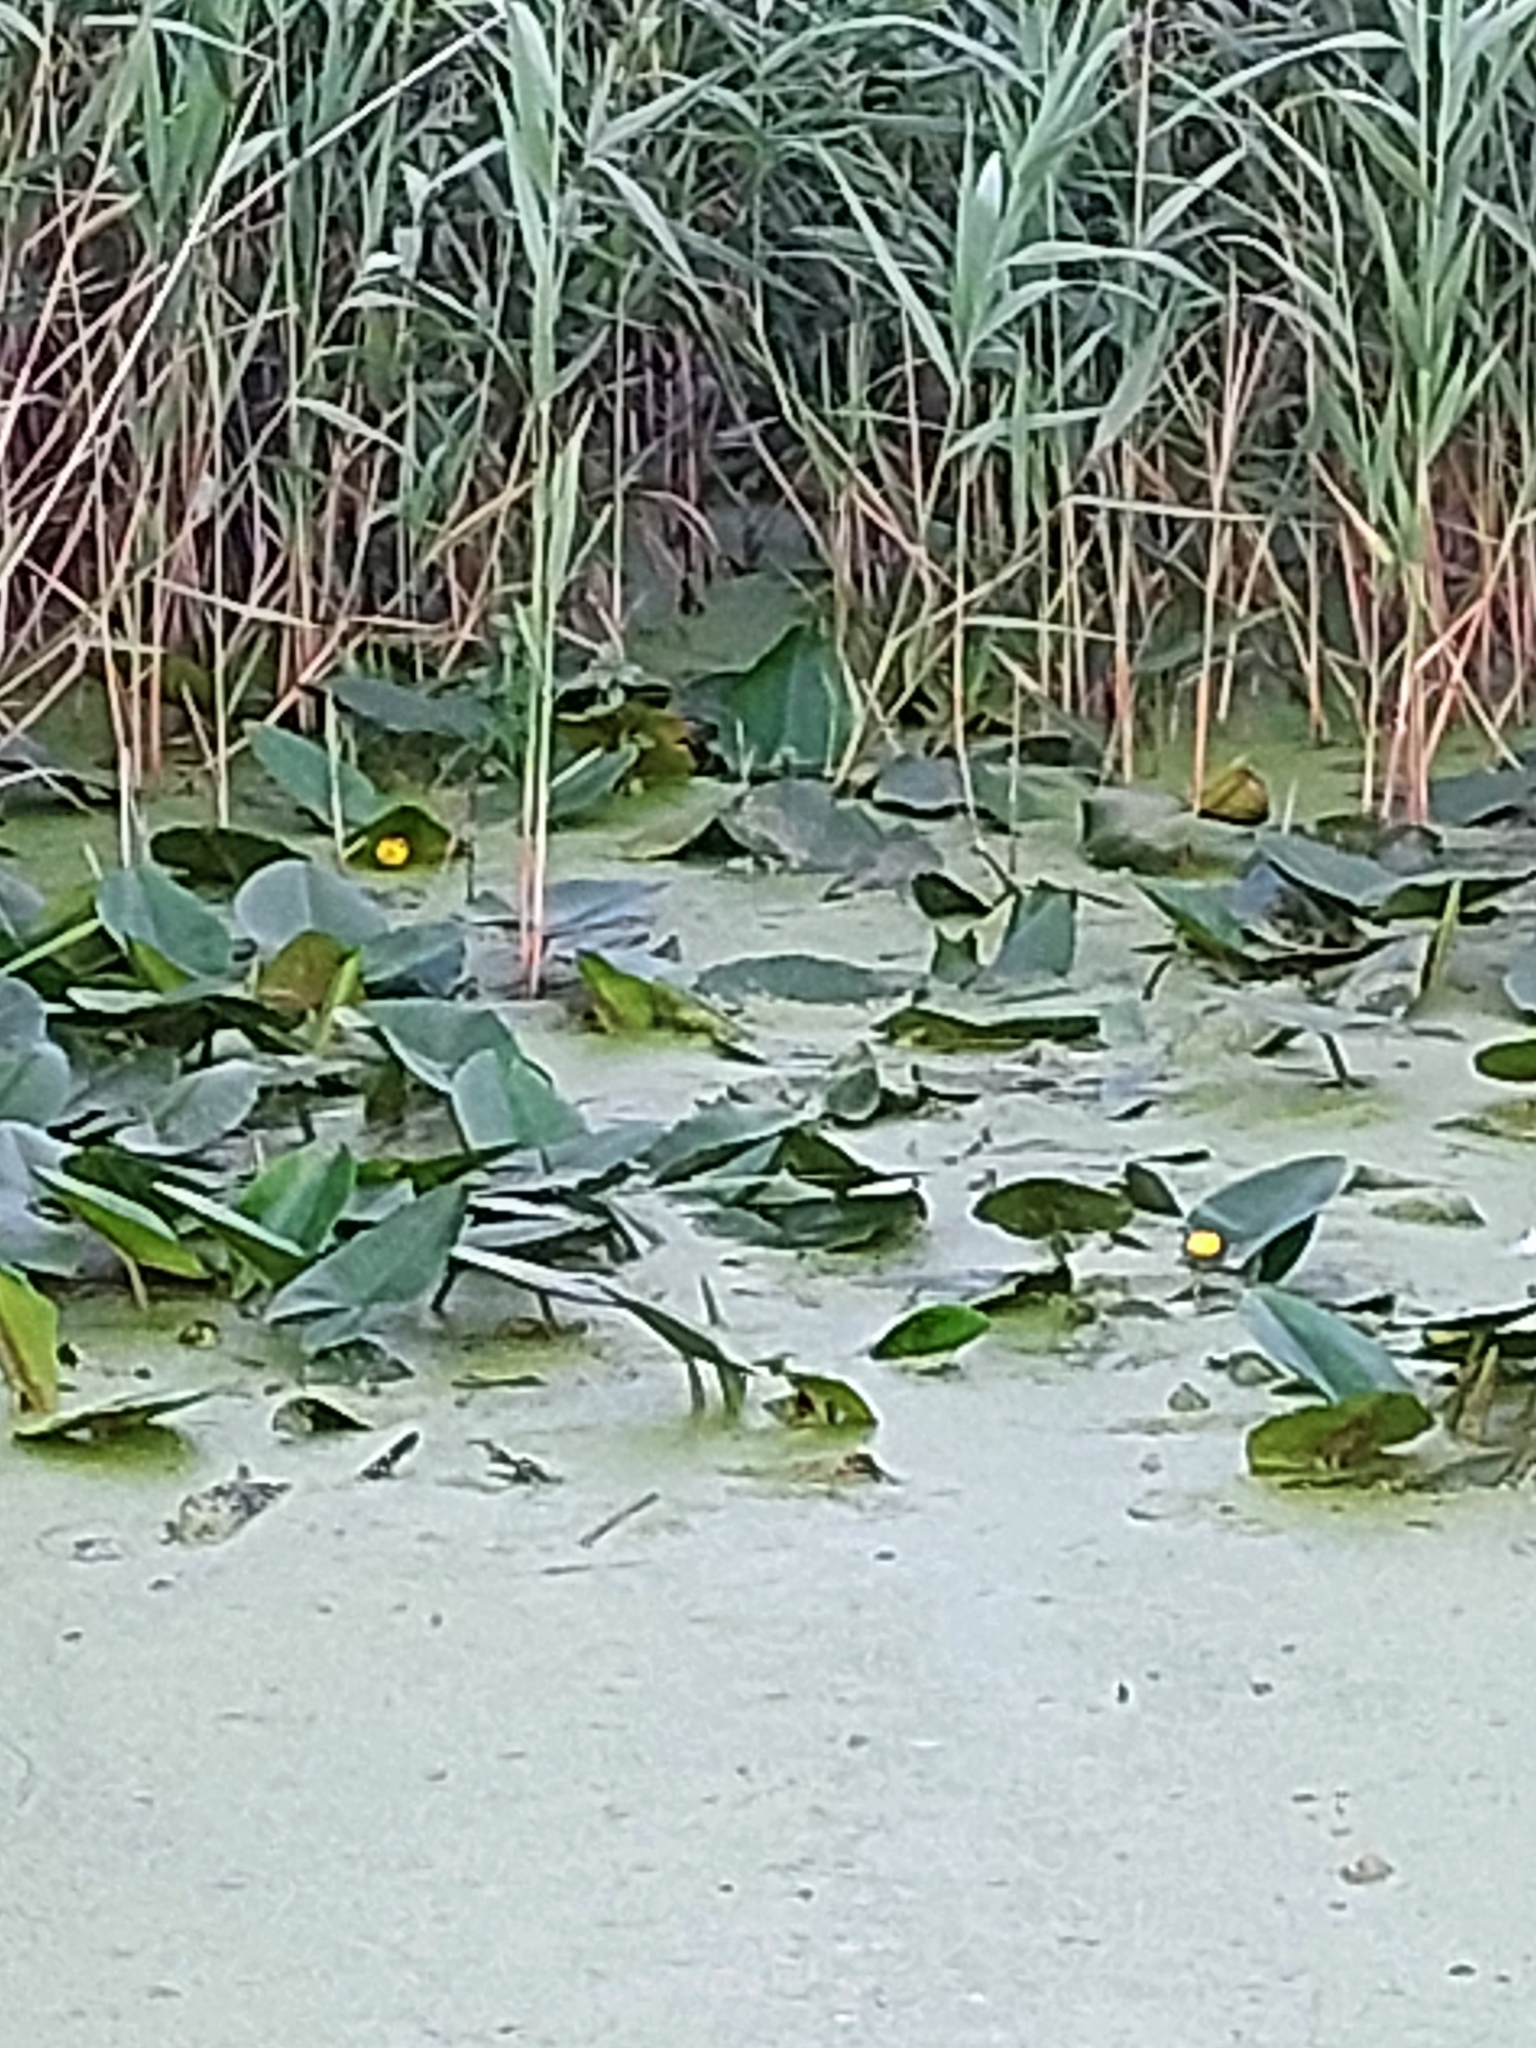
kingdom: Plantae
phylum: Tracheophyta
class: Magnoliopsida
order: Nymphaeales
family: Nymphaeaceae
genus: Nuphar
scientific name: Nuphar lutea
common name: Yellow water-lily
